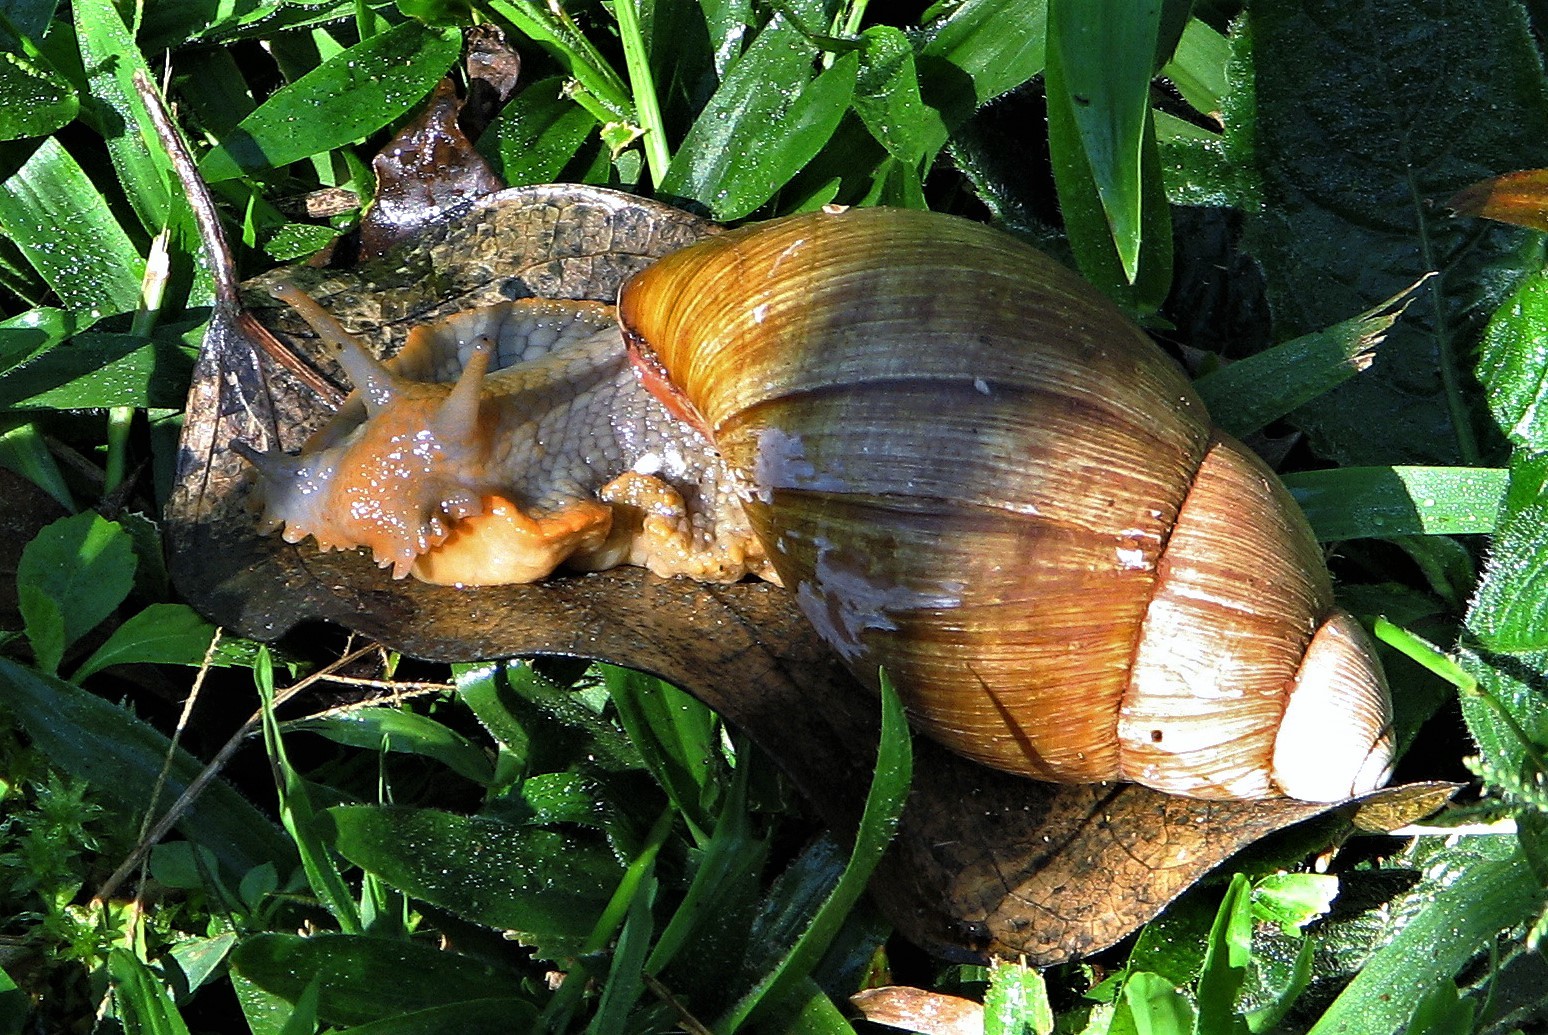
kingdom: Animalia
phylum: Mollusca
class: Gastropoda
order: Stylommatophora
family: Strophocheilidae
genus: Megalobulimus
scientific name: Megalobulimus
